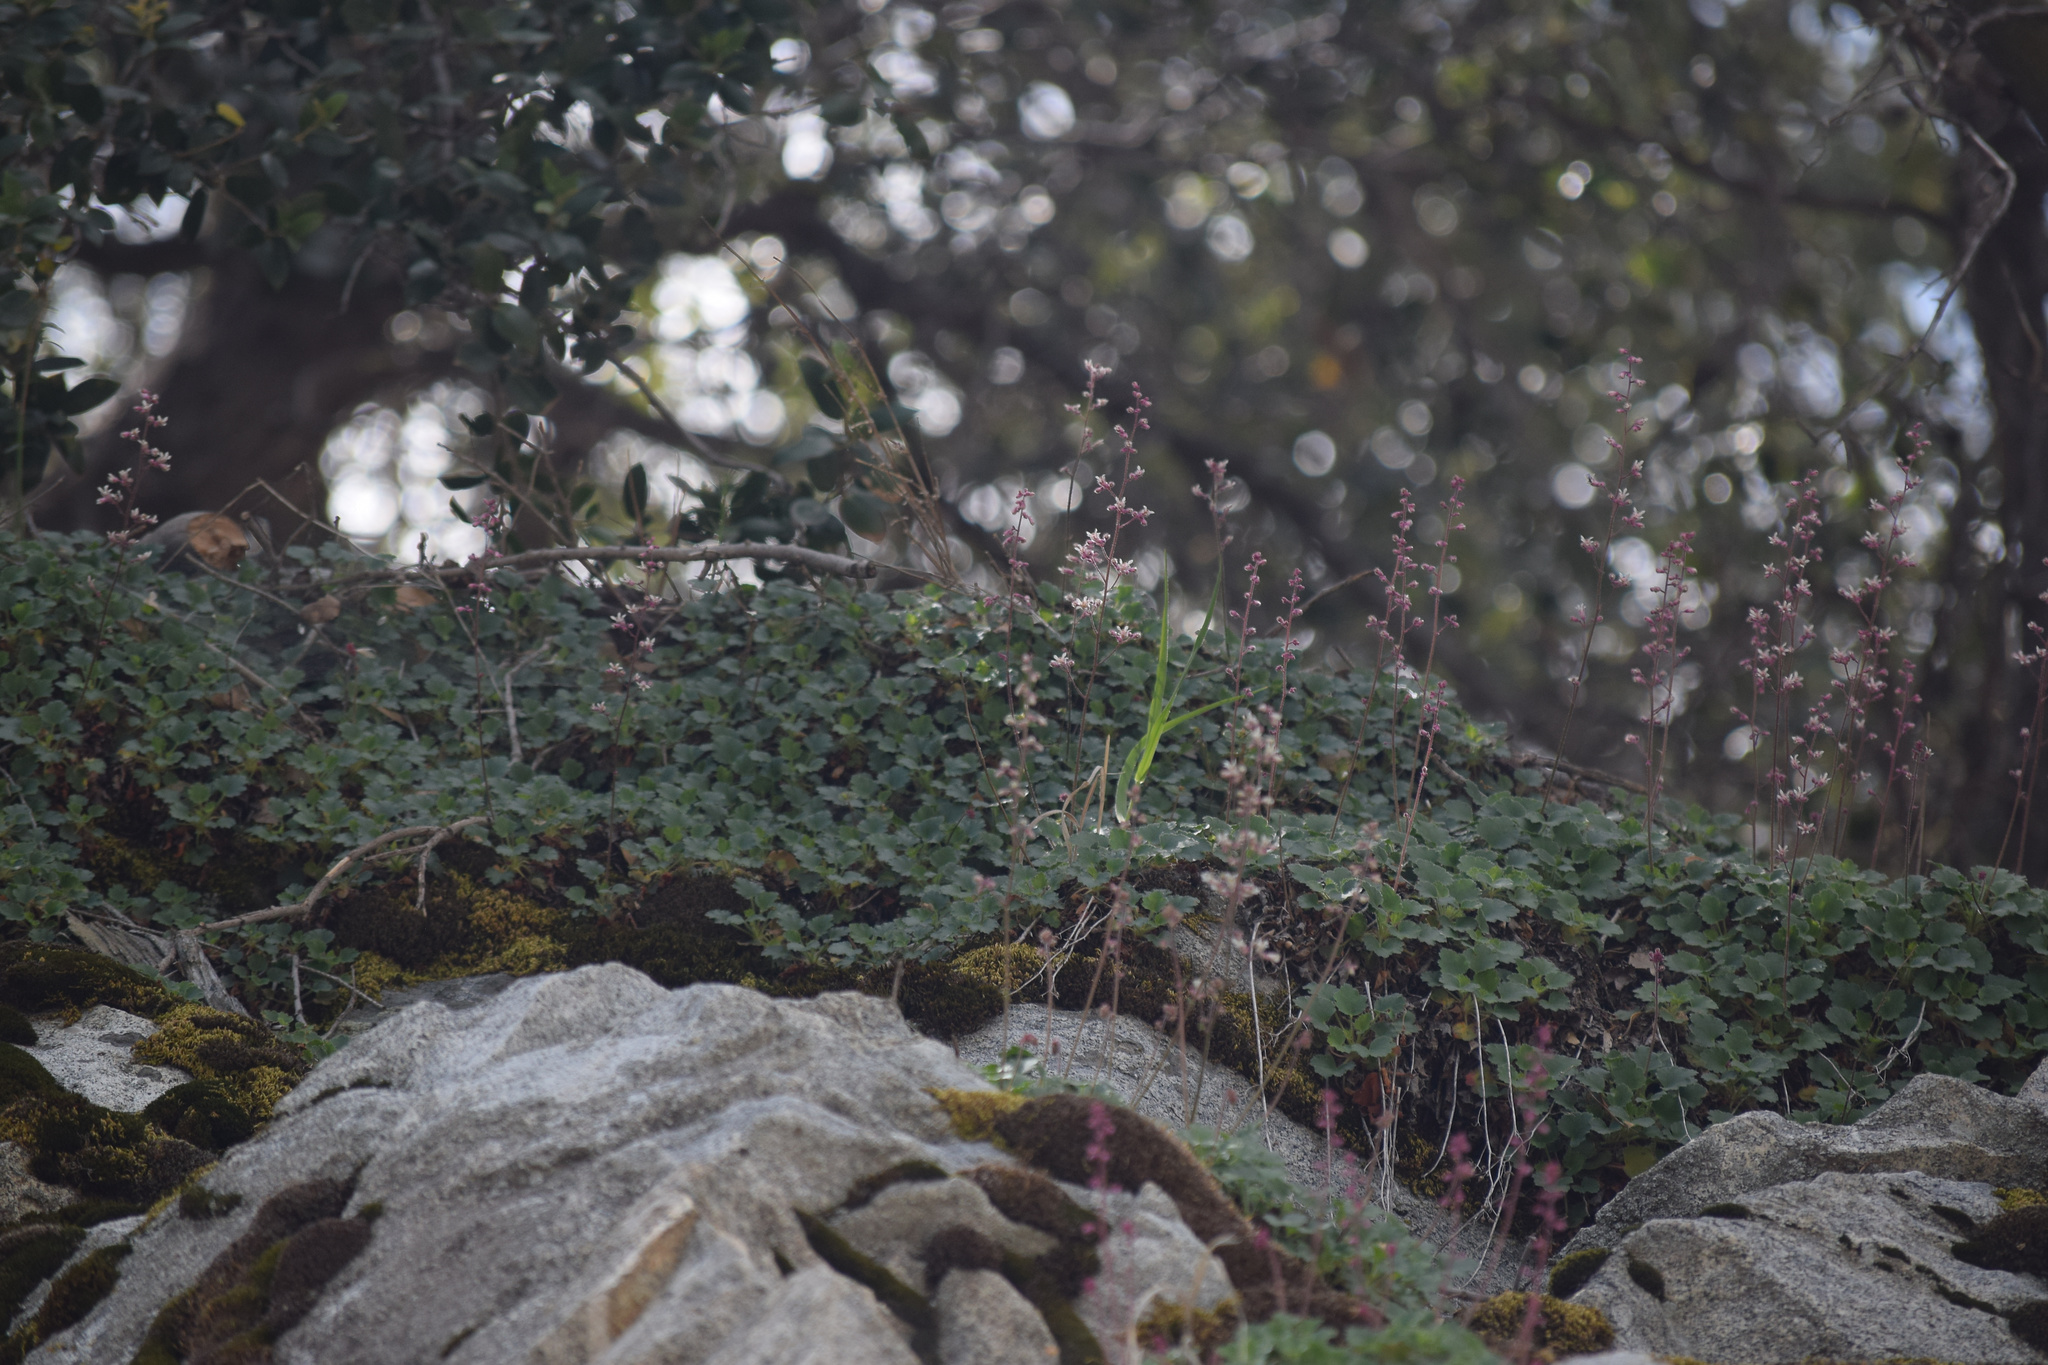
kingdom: Plantae
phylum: Tracheophyta
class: Magnoliopsida
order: Saxifragales
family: Saxifragaceae
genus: Heuchera
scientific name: Heuchera elegans
